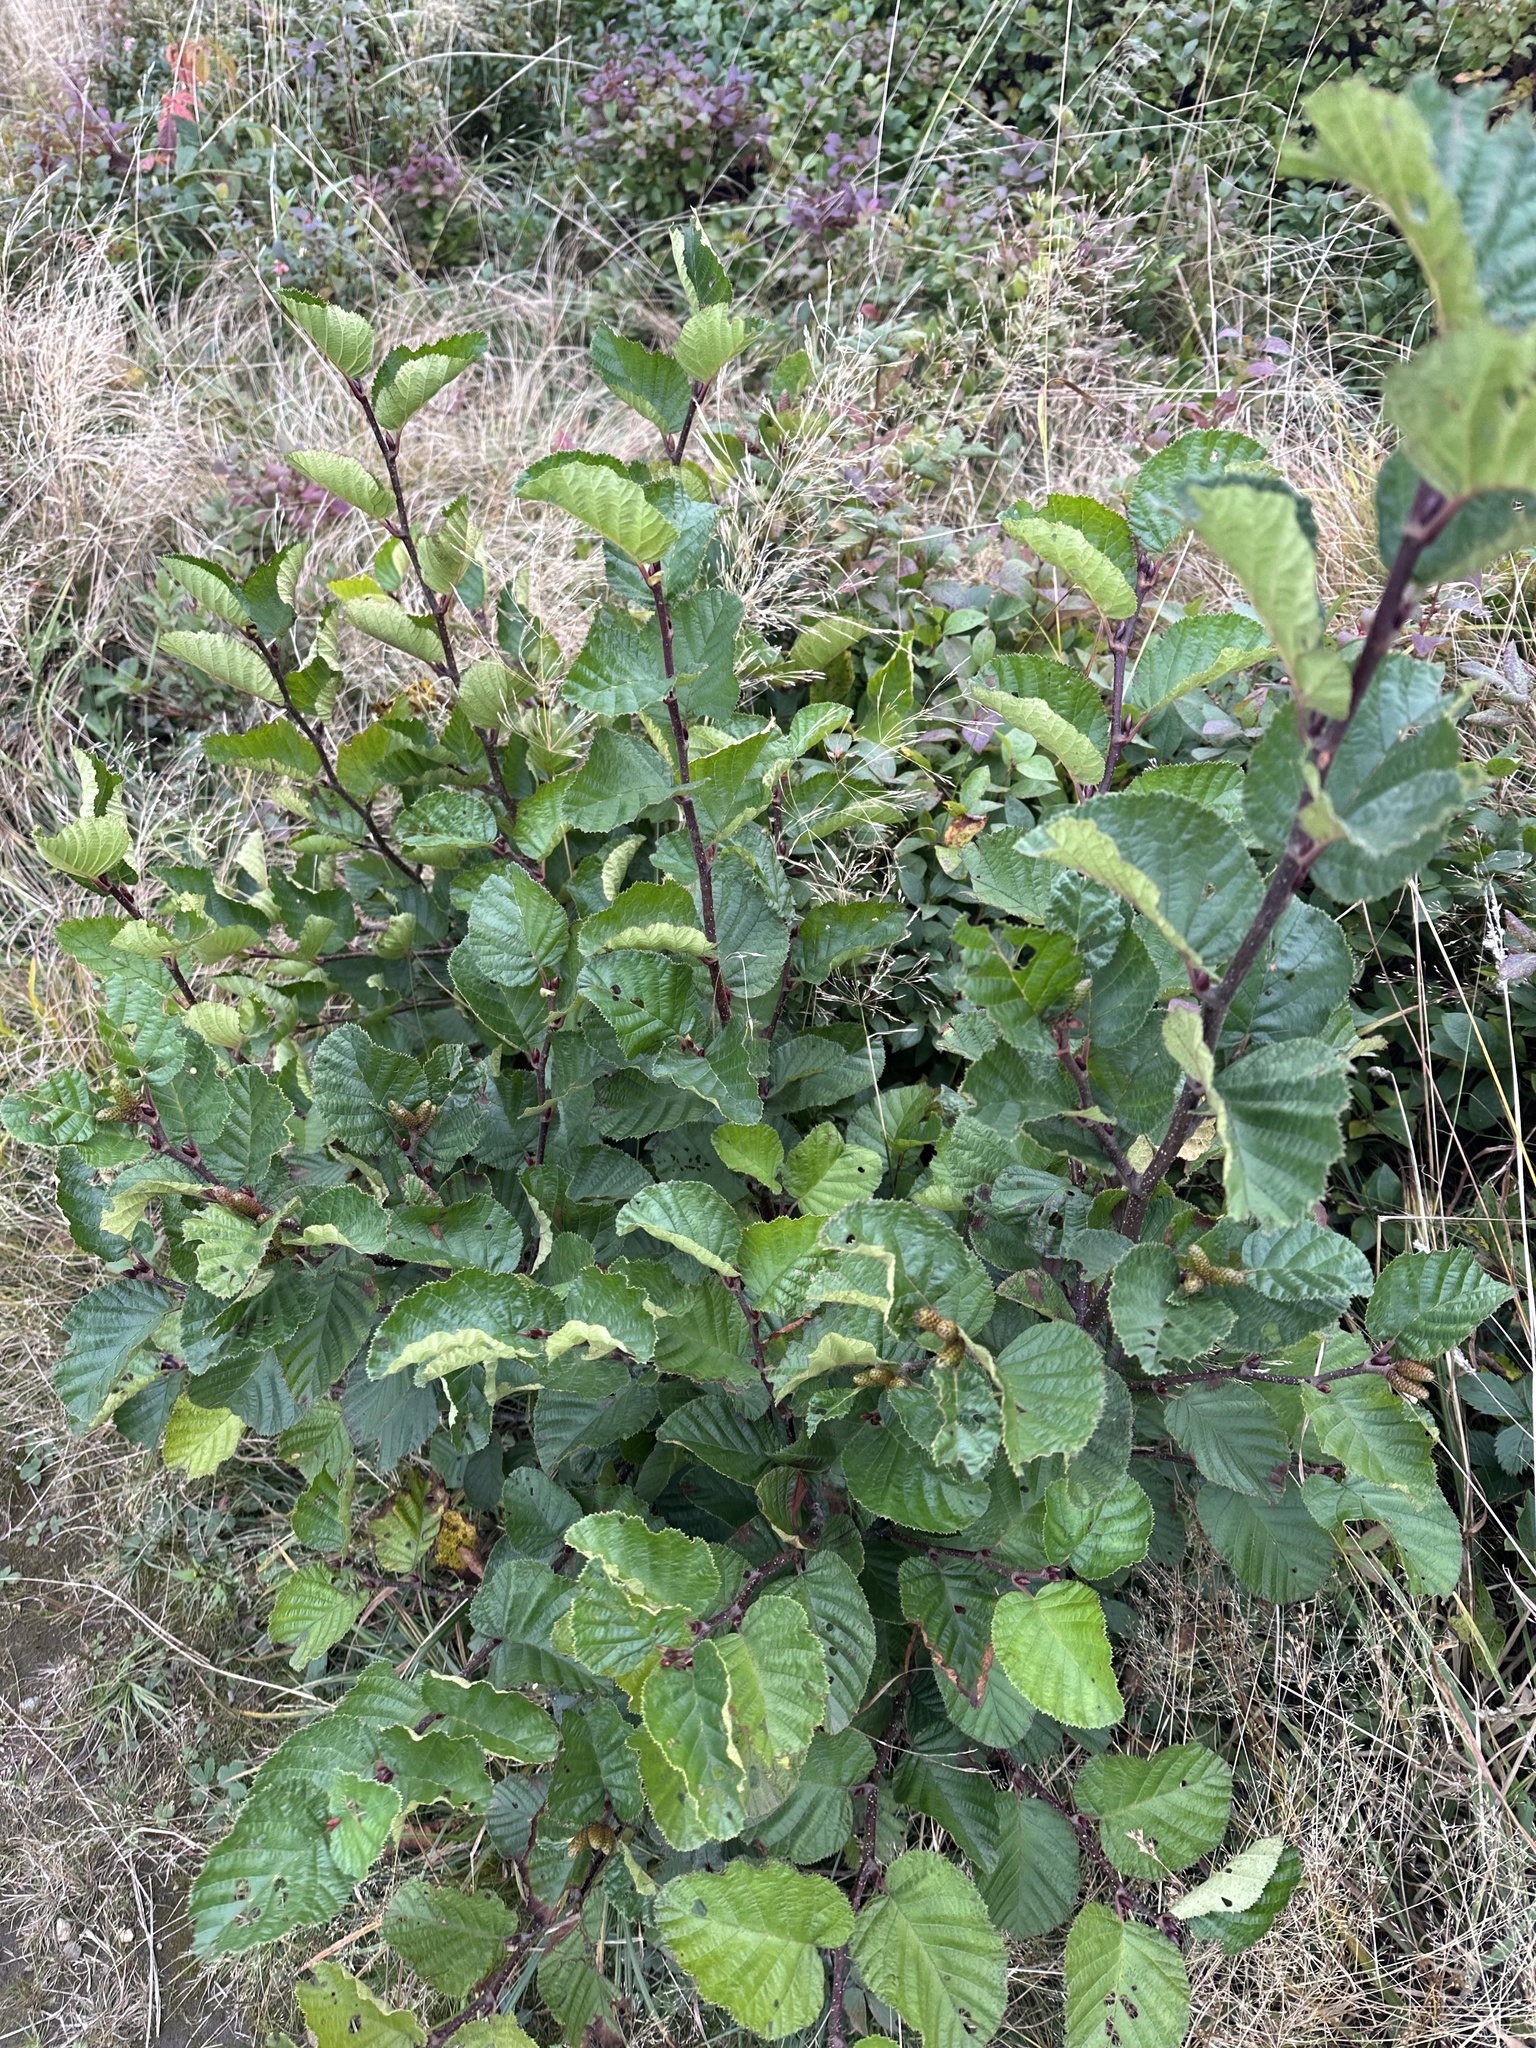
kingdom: Plantae
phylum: Tracheophyta
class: Magnoliopsida
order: Fagales
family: Betulaceae
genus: Alnus
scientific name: Alnus alnobetula
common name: Green alder
